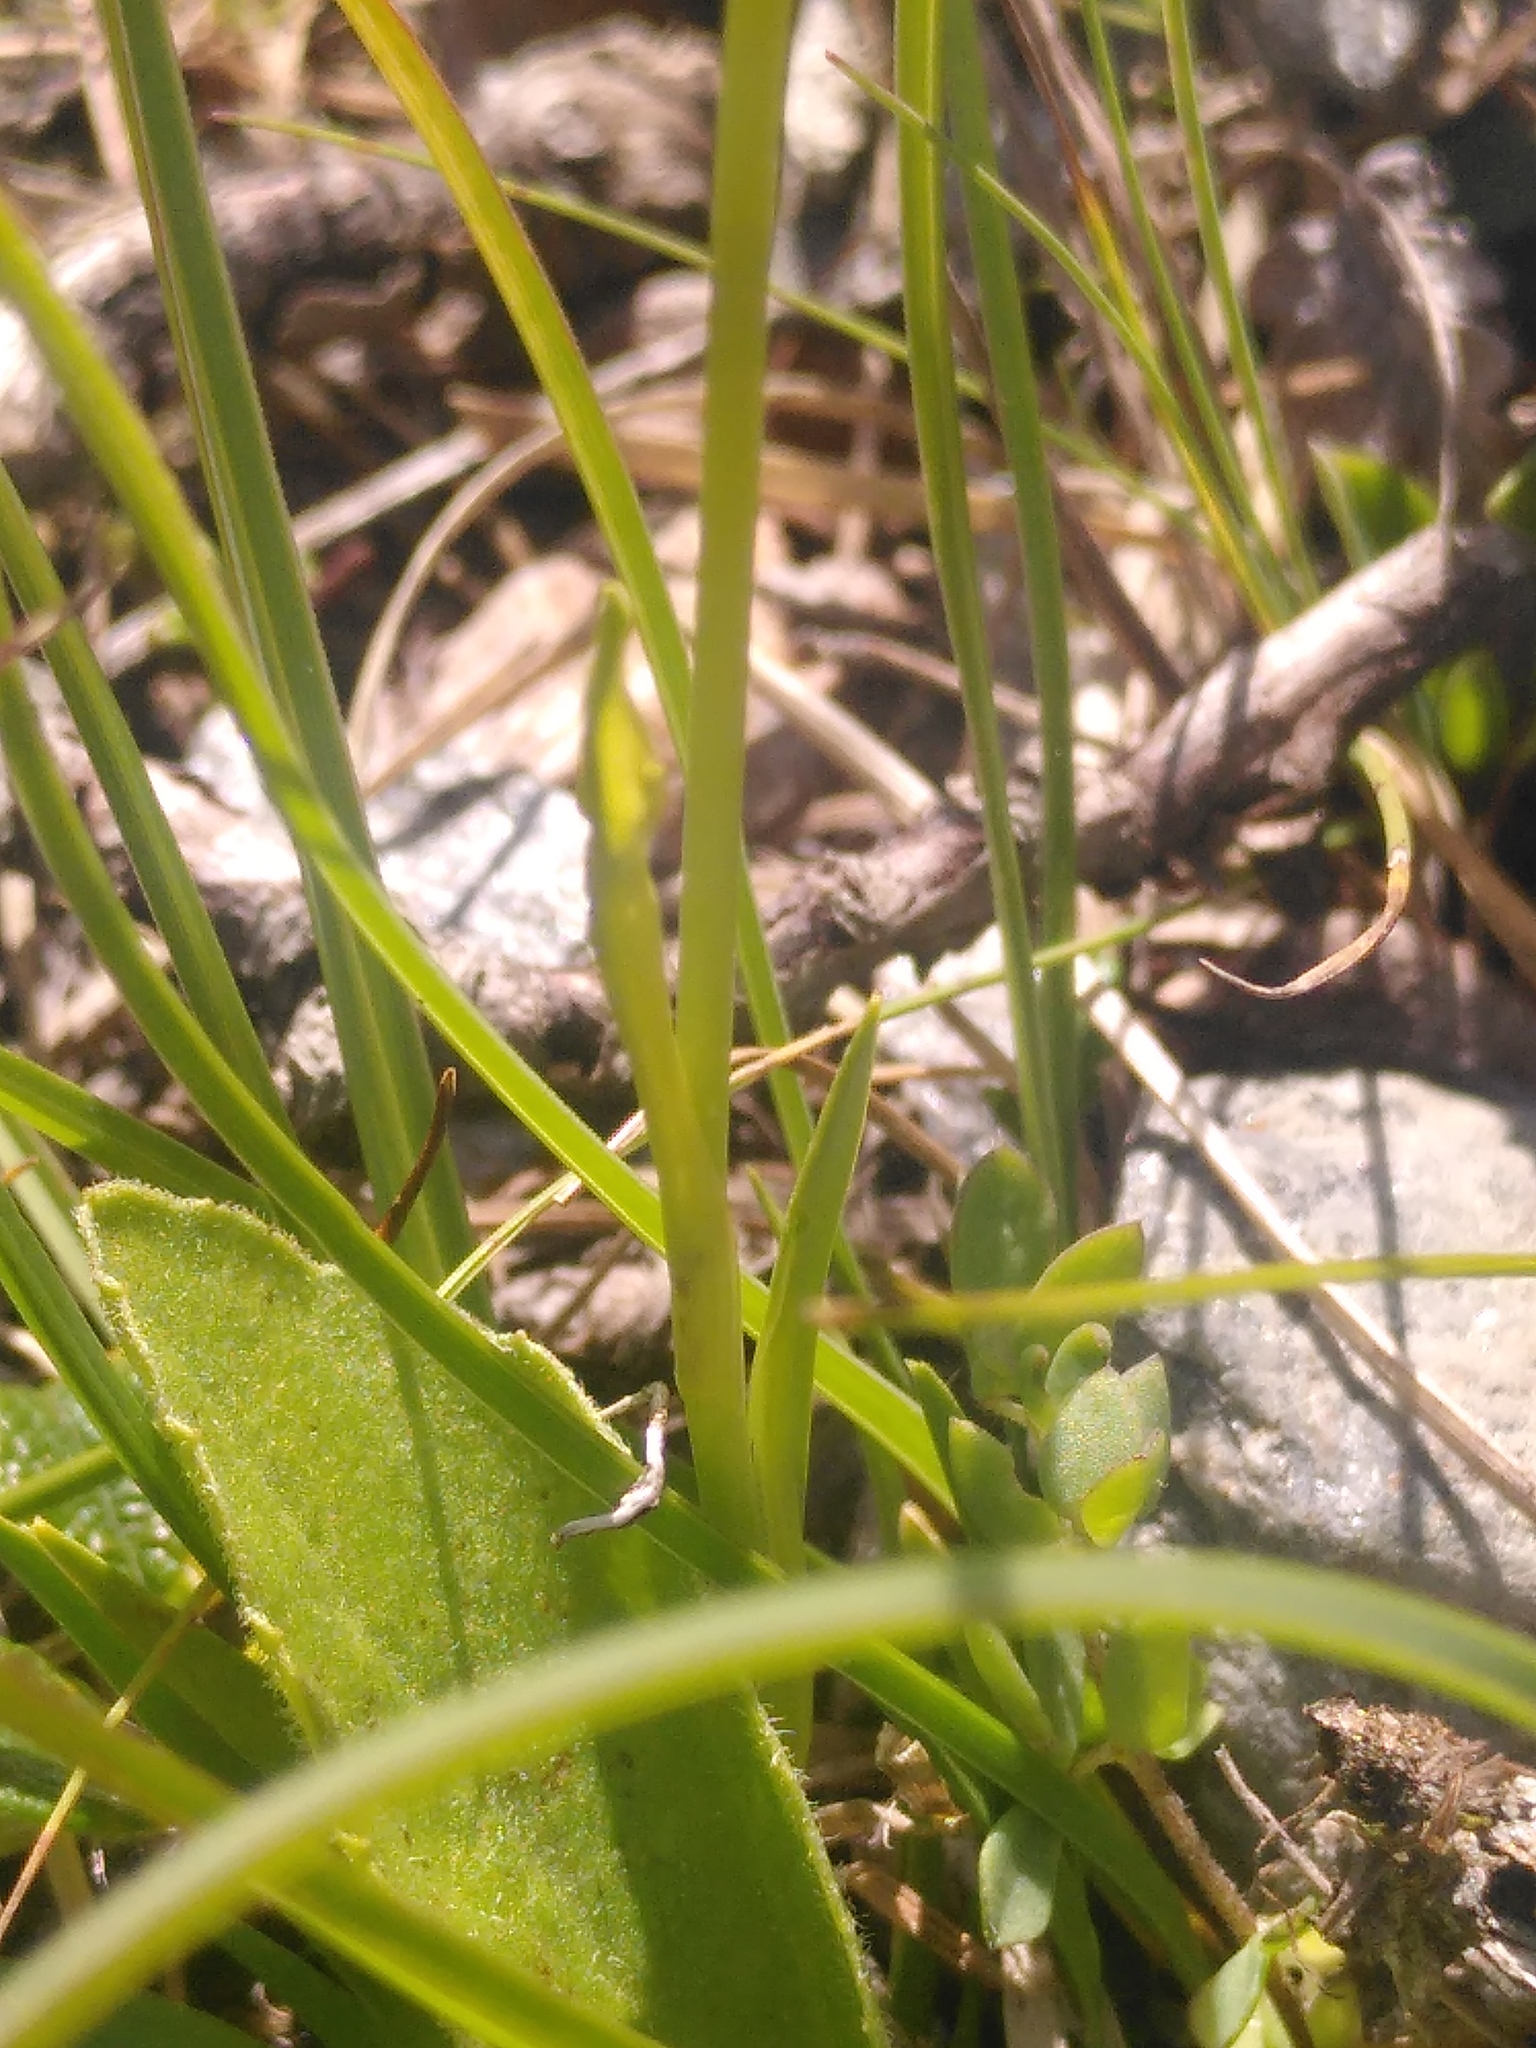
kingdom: Plantae
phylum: Tracheophyta
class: Liliopsida
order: Alismatales
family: Tofieldiaceae
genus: Tofieldia
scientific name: Tofieldia calyculata
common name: German-asphodel
